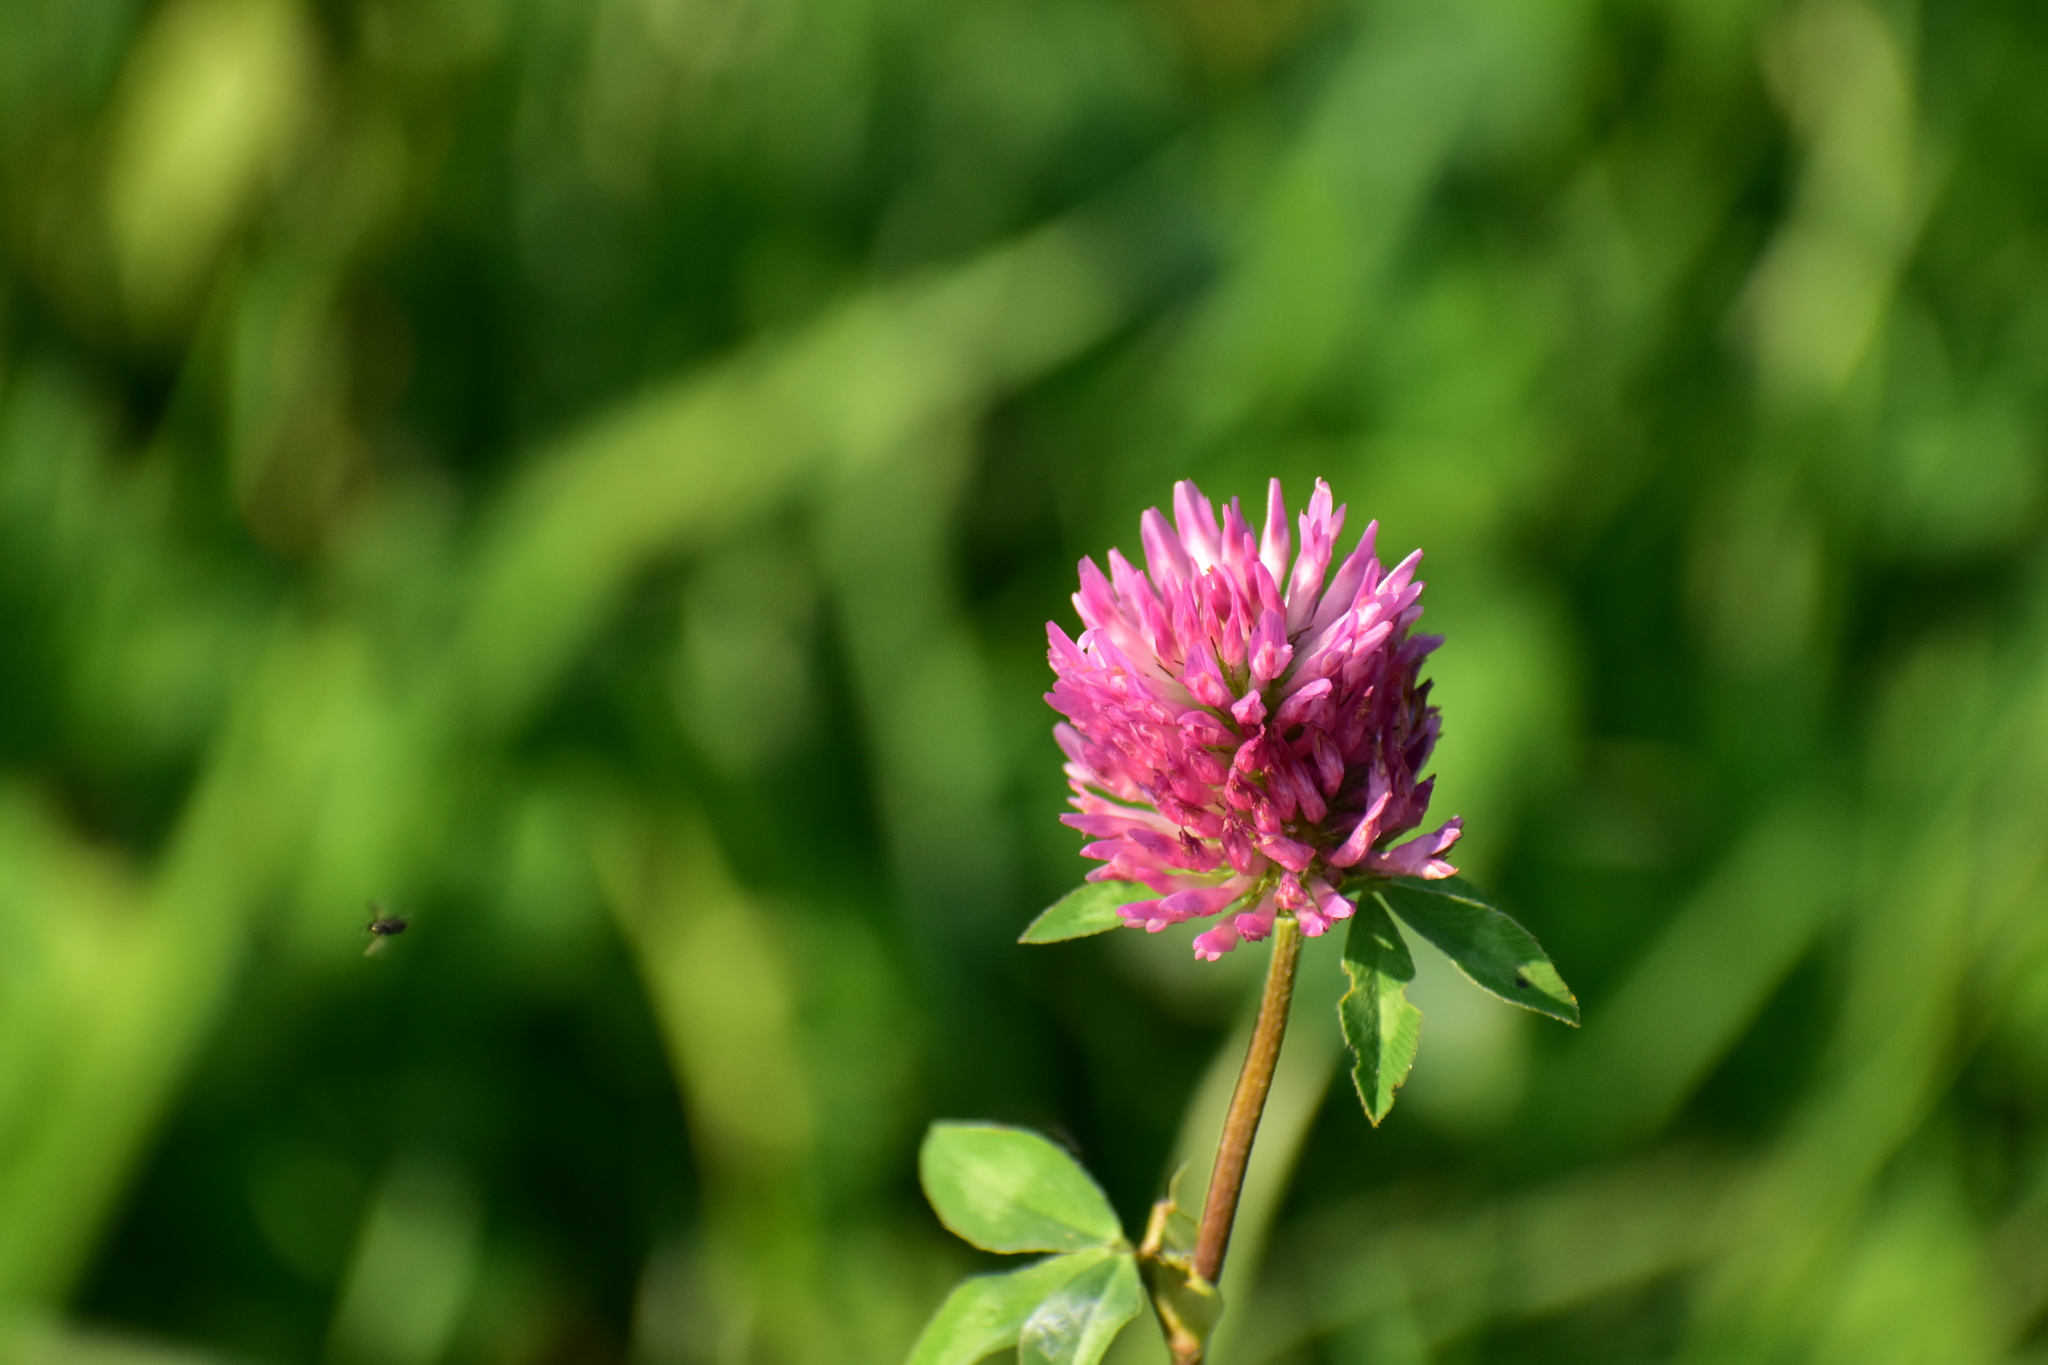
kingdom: Plantae
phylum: Tracheophyta
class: Magnoliopsida
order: Fabales
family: Fabaceae
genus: Trifolium
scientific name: Trifolium pratense
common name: Red clover
